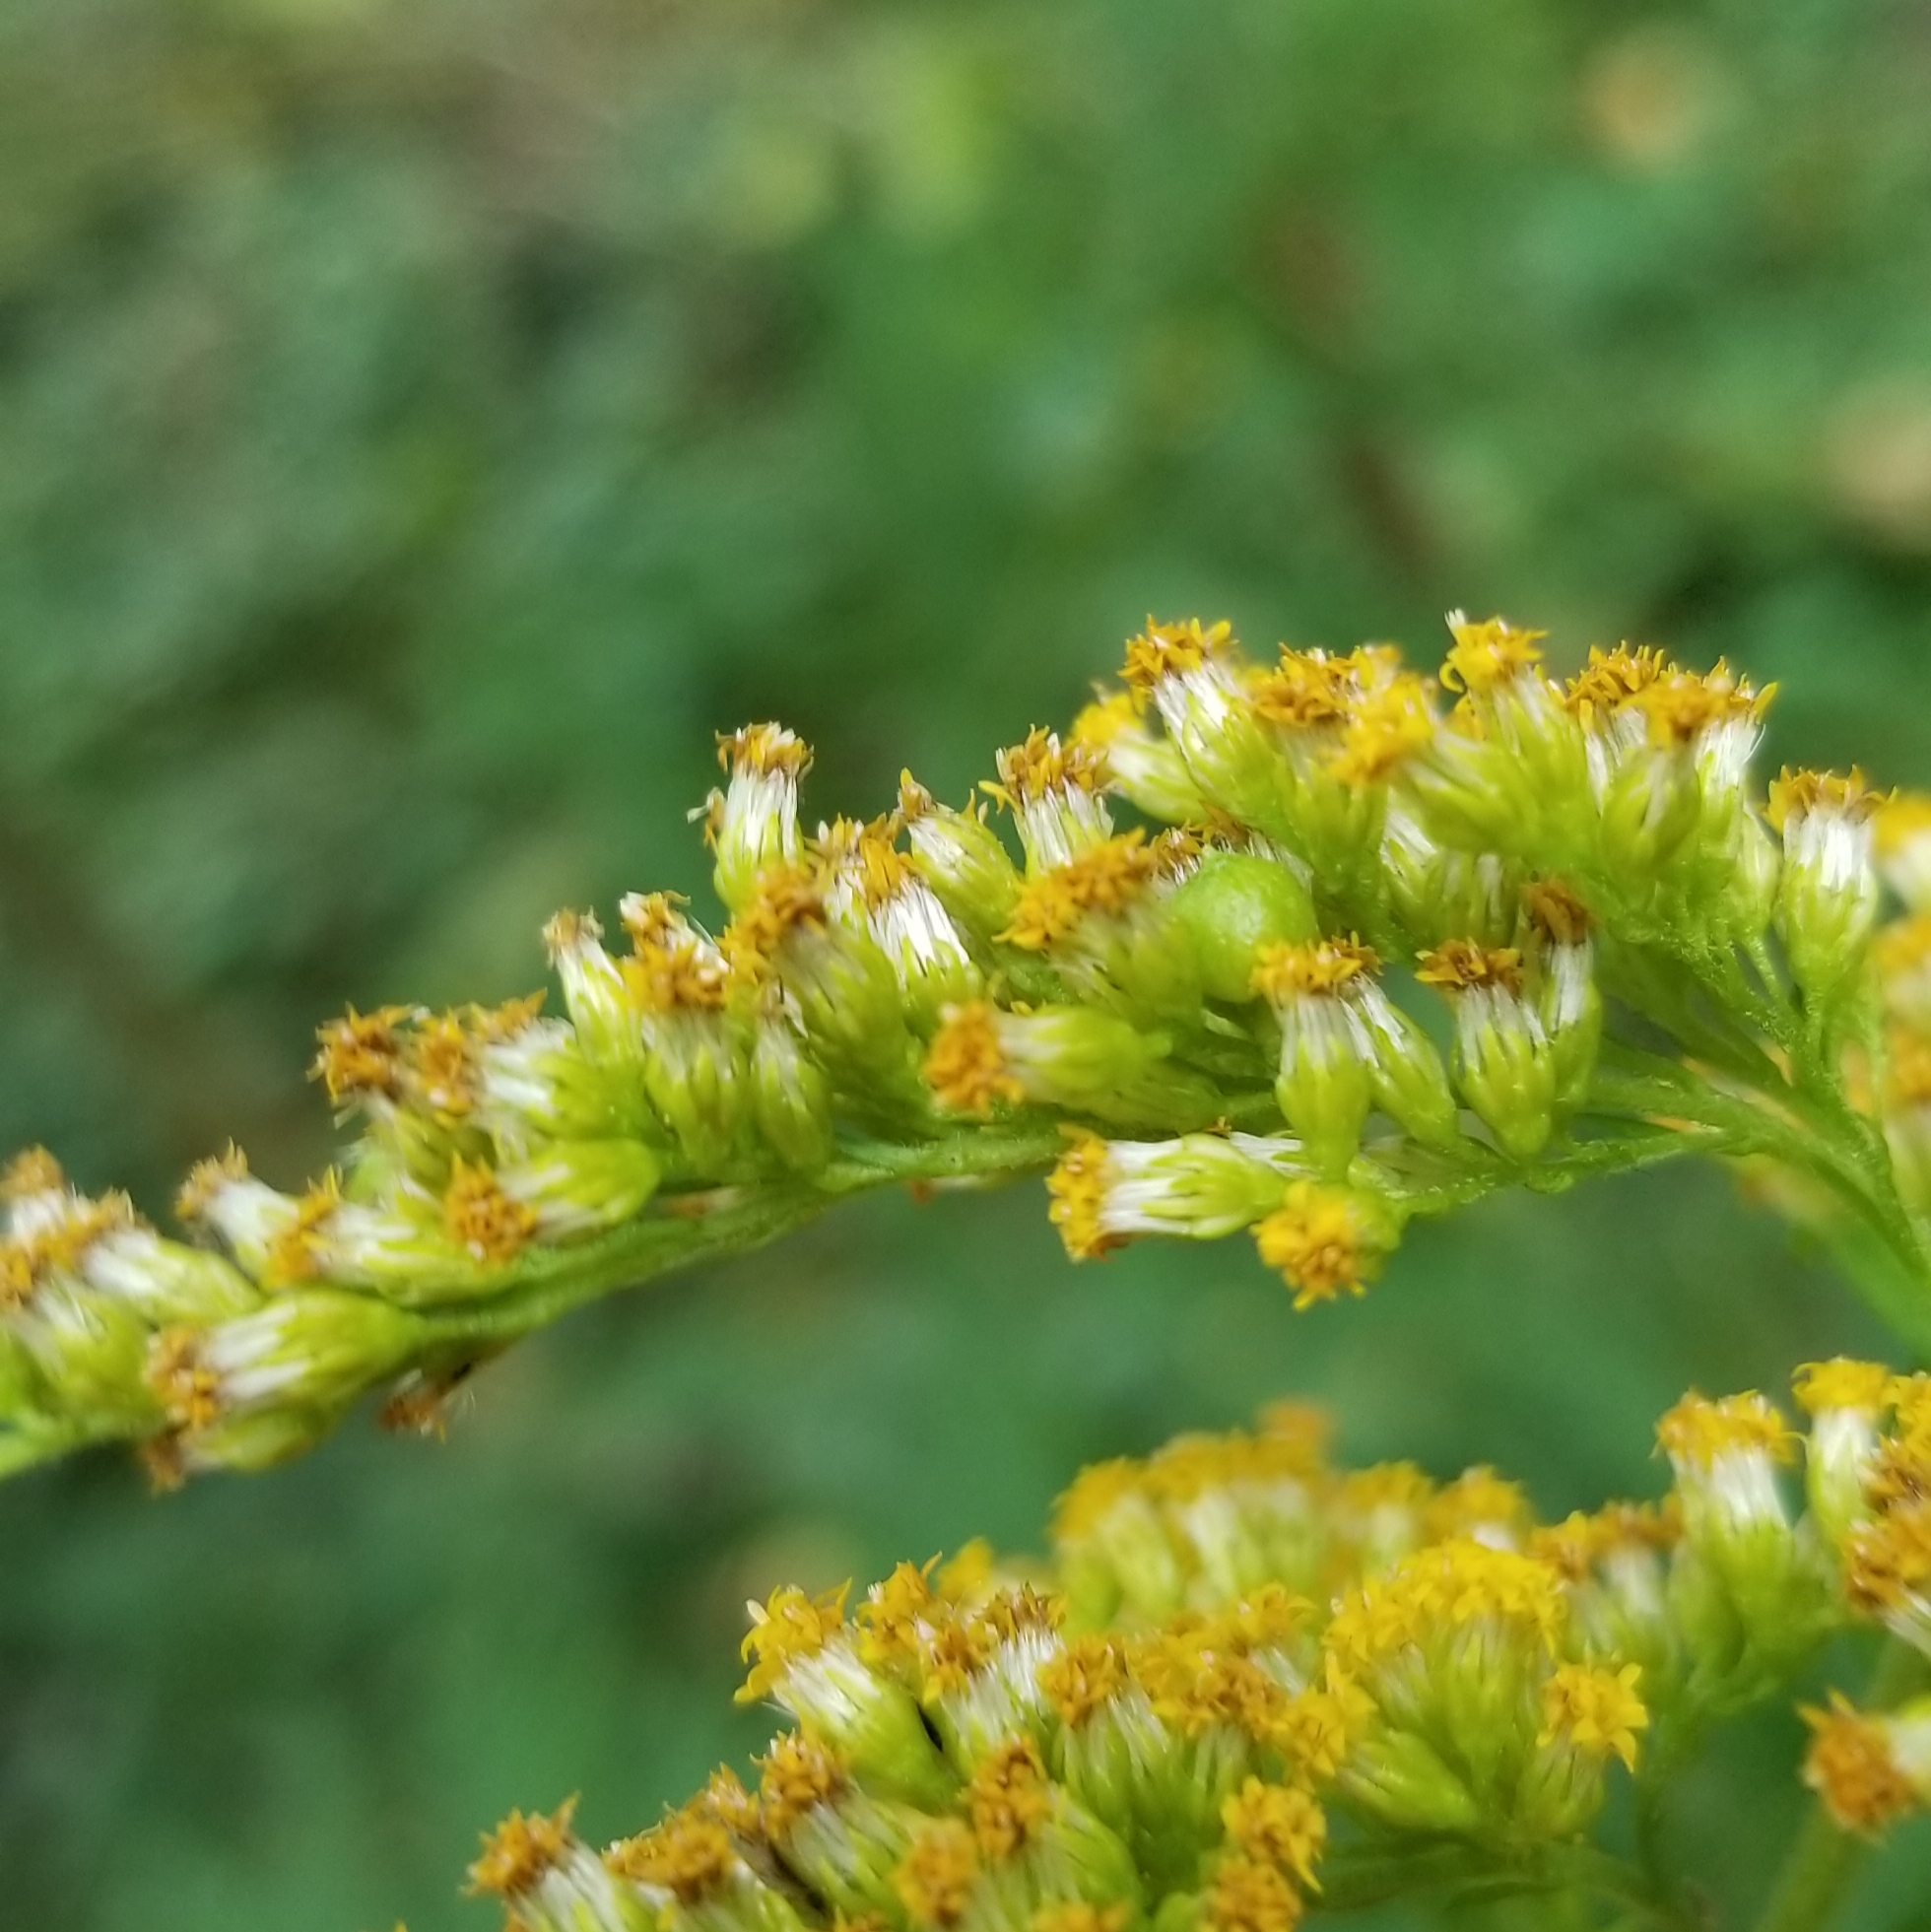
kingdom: Animalia
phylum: Arthropoda
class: Insecta
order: Diptera
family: Cecidomyiidae
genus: Schizomyia
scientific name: Schizomyia racemicola
